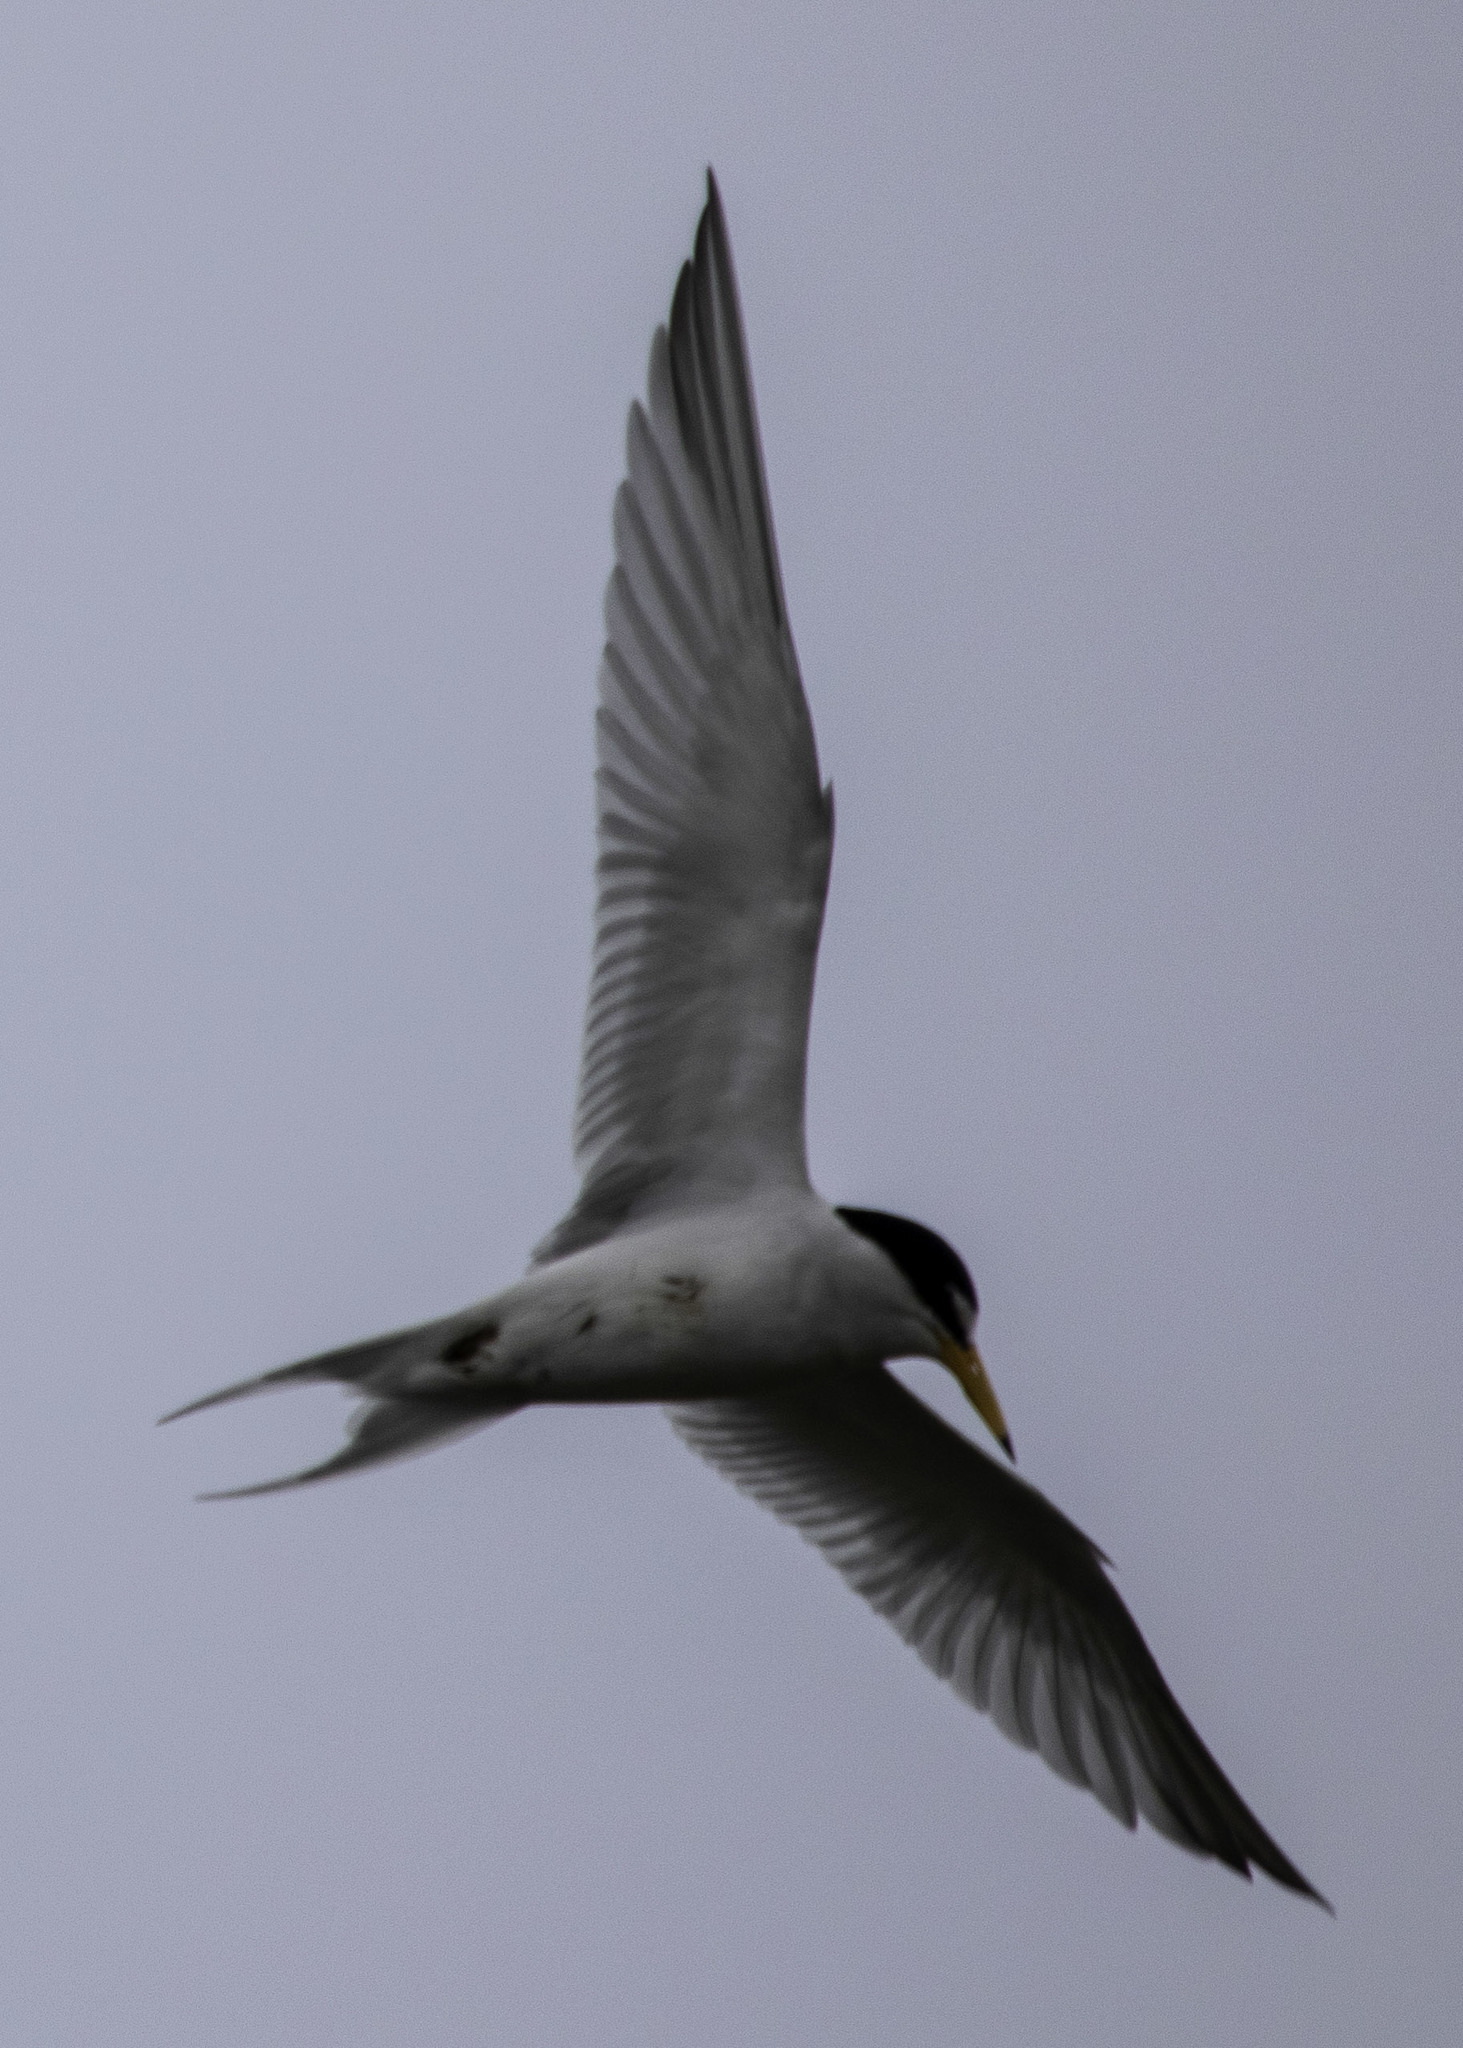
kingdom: Animalia
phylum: Chordata
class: Aves
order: Charadriiformes
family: Laridae
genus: Sternula
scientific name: Sternula antillarum
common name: Least tern
